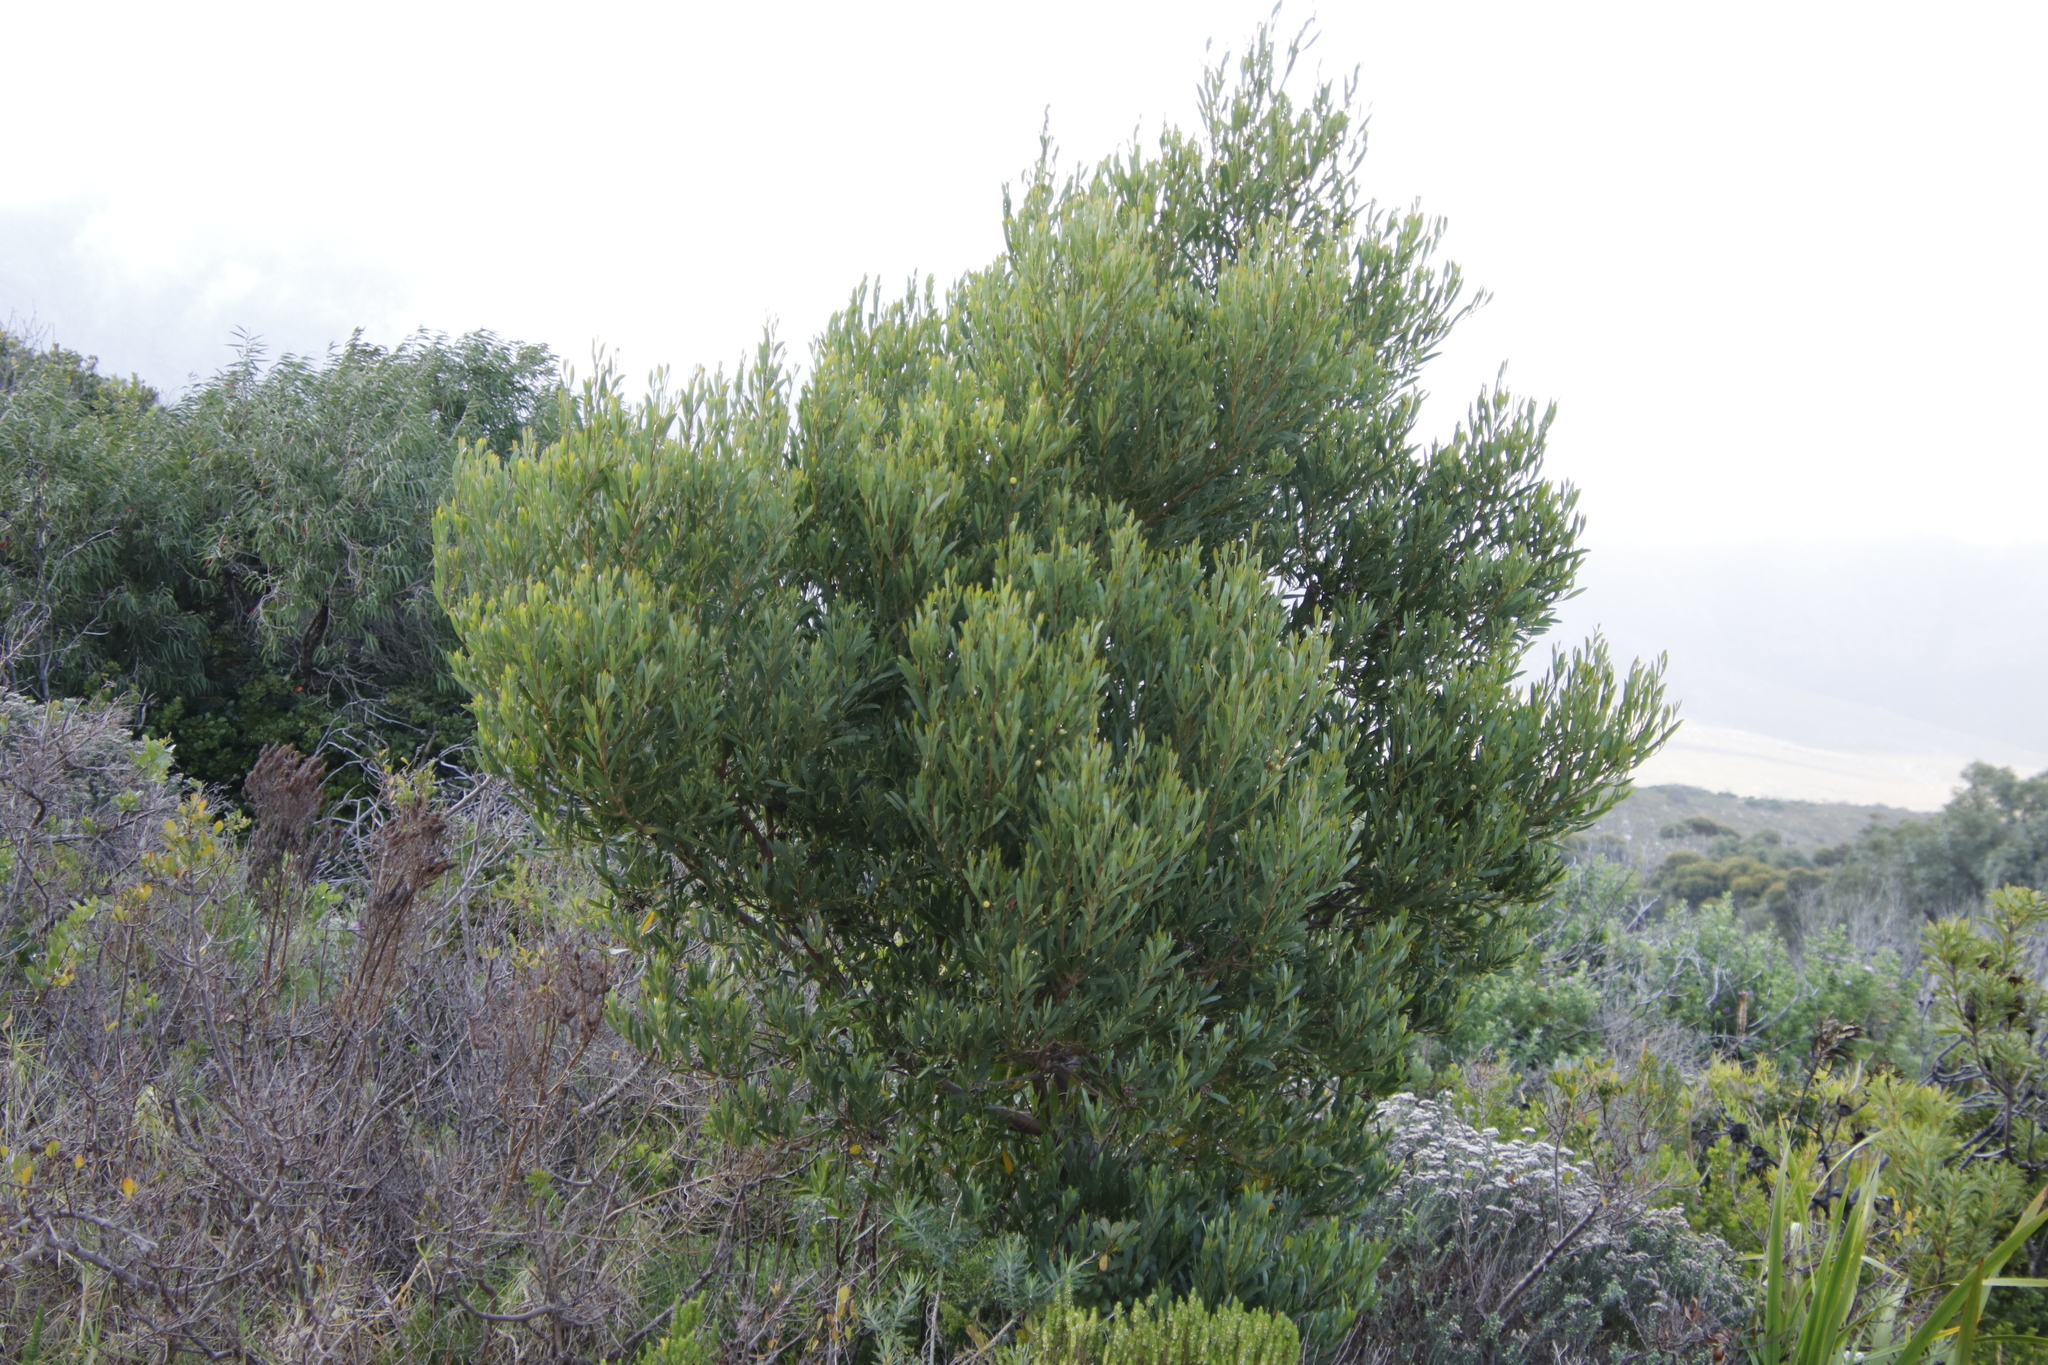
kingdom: Plantae
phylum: Tracheophyta
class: Magnoliopsida
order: Fabales
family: Fabaceae
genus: Acacia
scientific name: Acacia cyclops
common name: Coastal wattle
